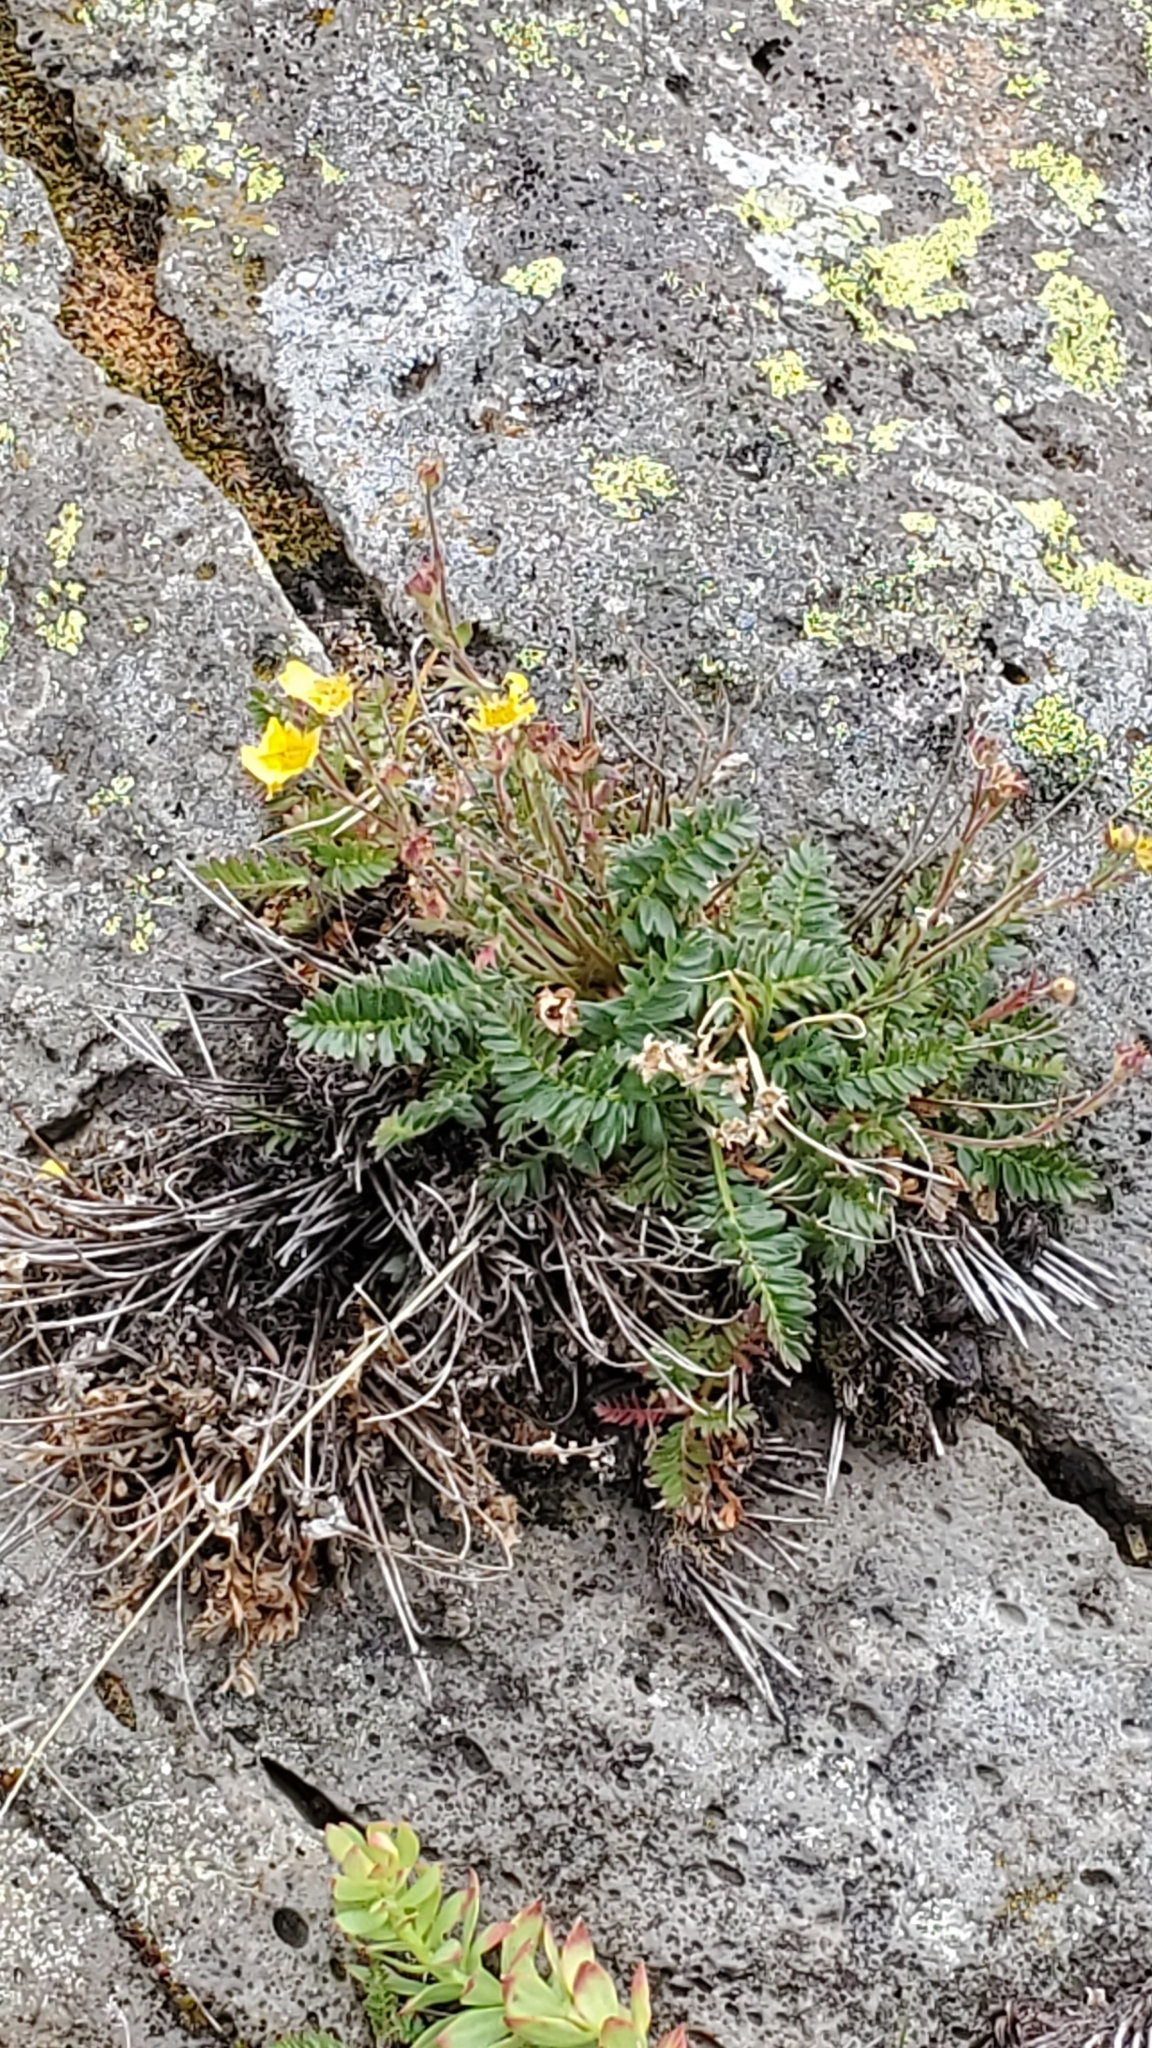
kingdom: Plantae
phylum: Tracheophyta
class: Magnoliopsida
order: Rosales
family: Rosaceae
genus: Geum
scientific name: Geum rossii
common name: Alpine avens
